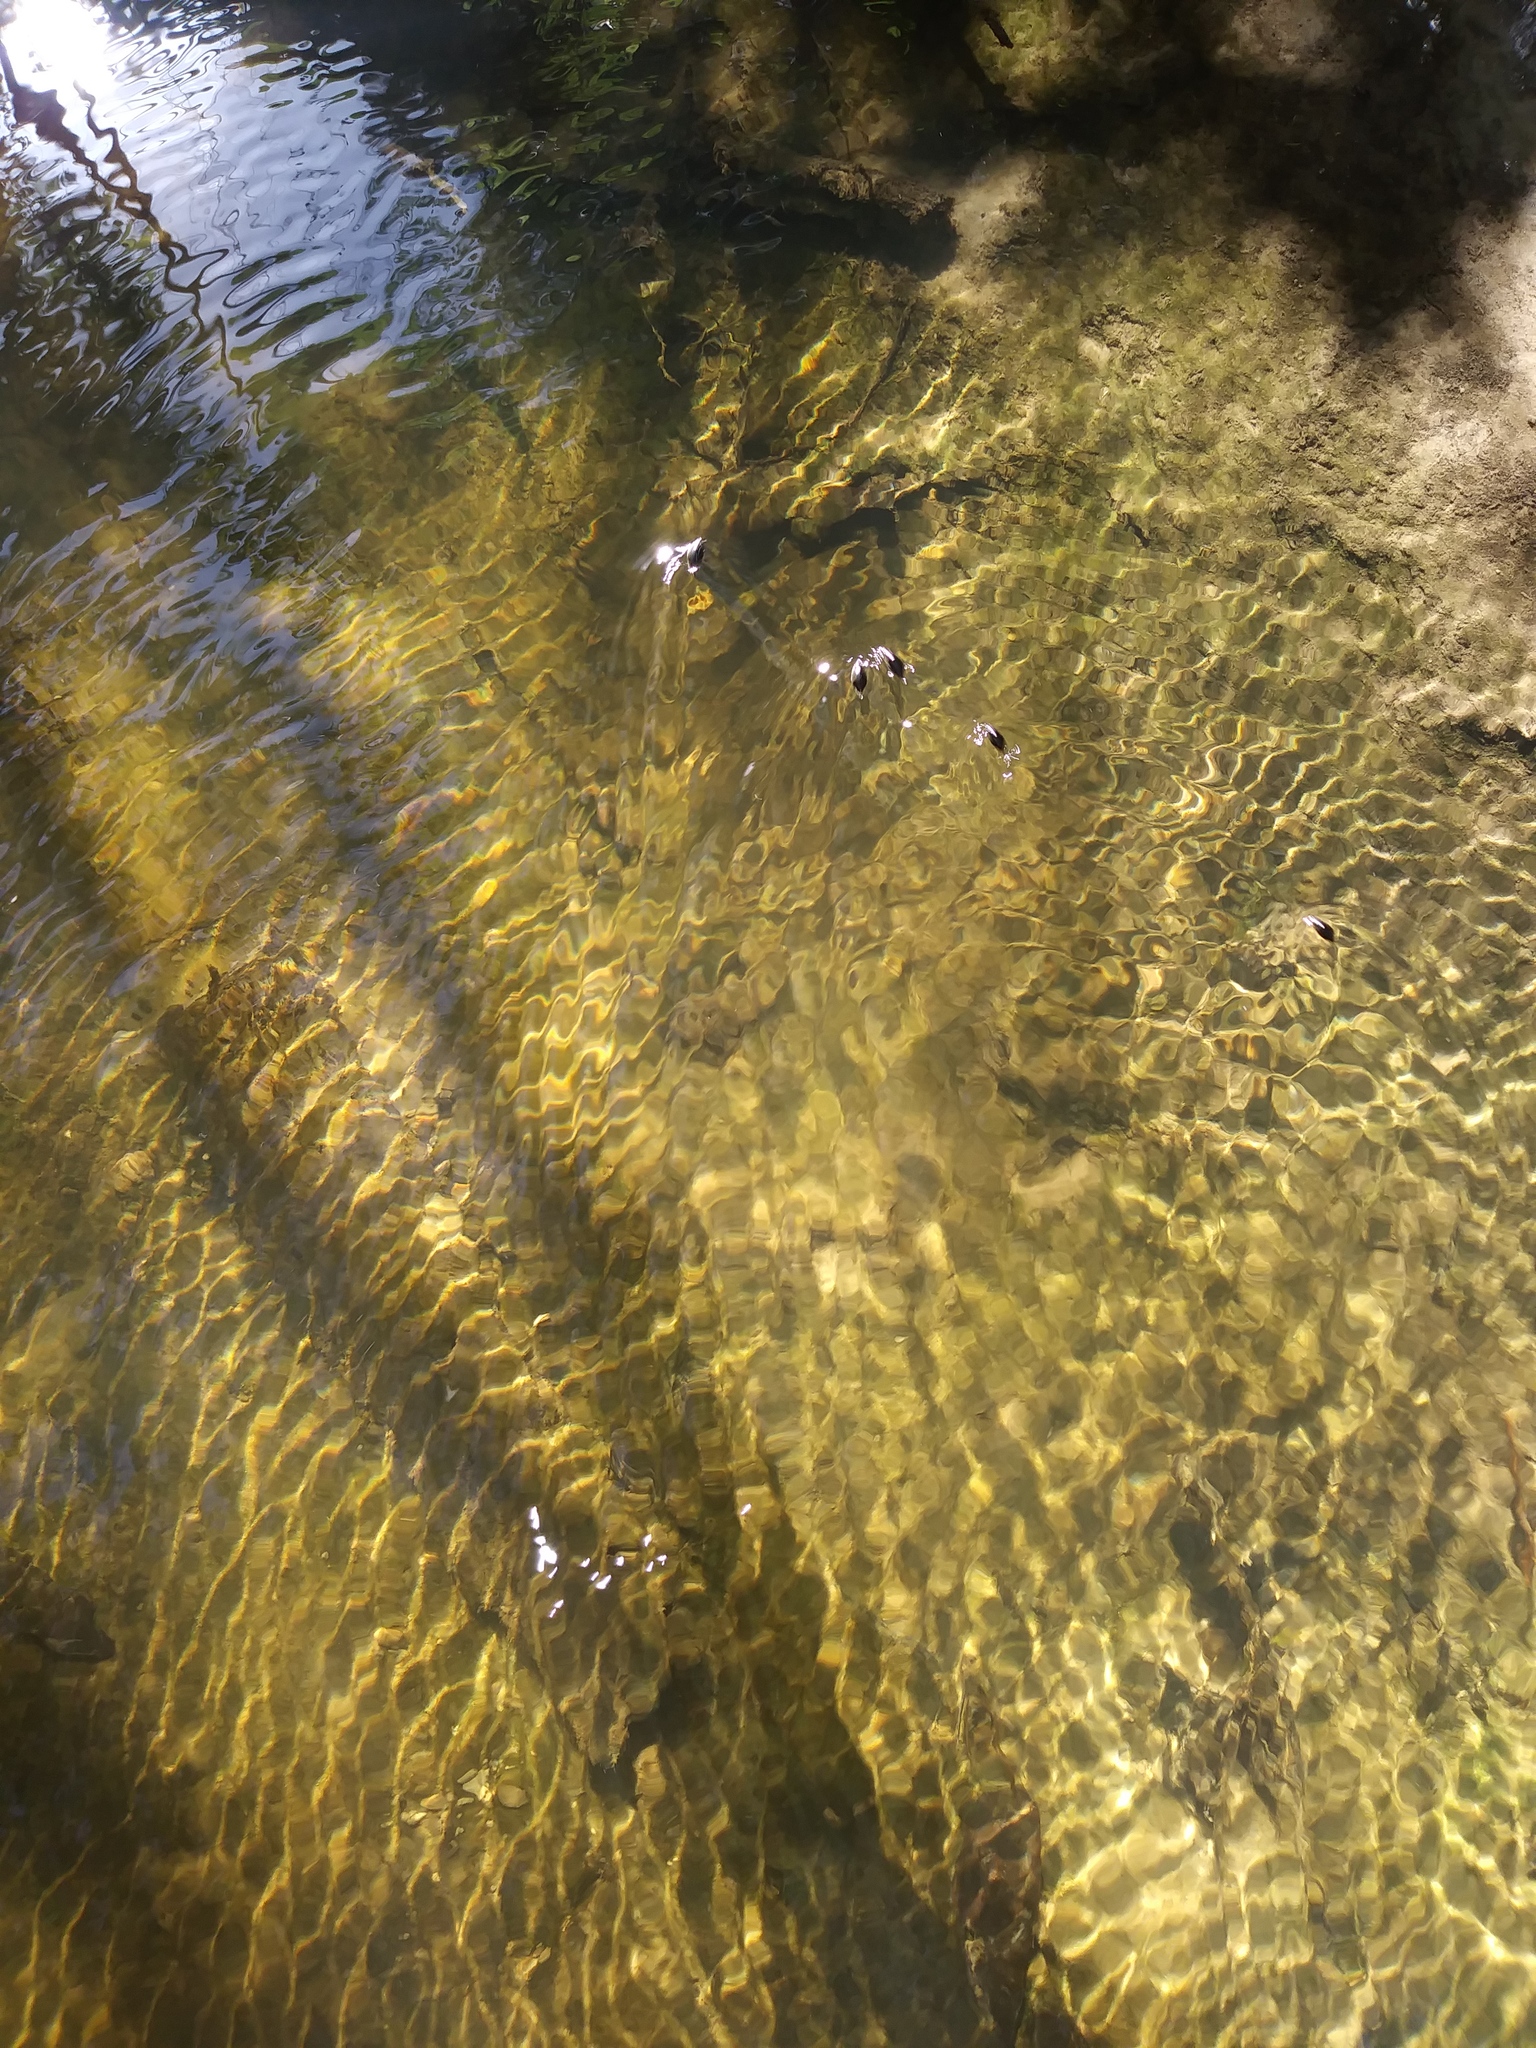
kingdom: Animalia
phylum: Arthropoda
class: Insecta
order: Coleoptera
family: Gyrinidae
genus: Dineutus
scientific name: Dineutus
